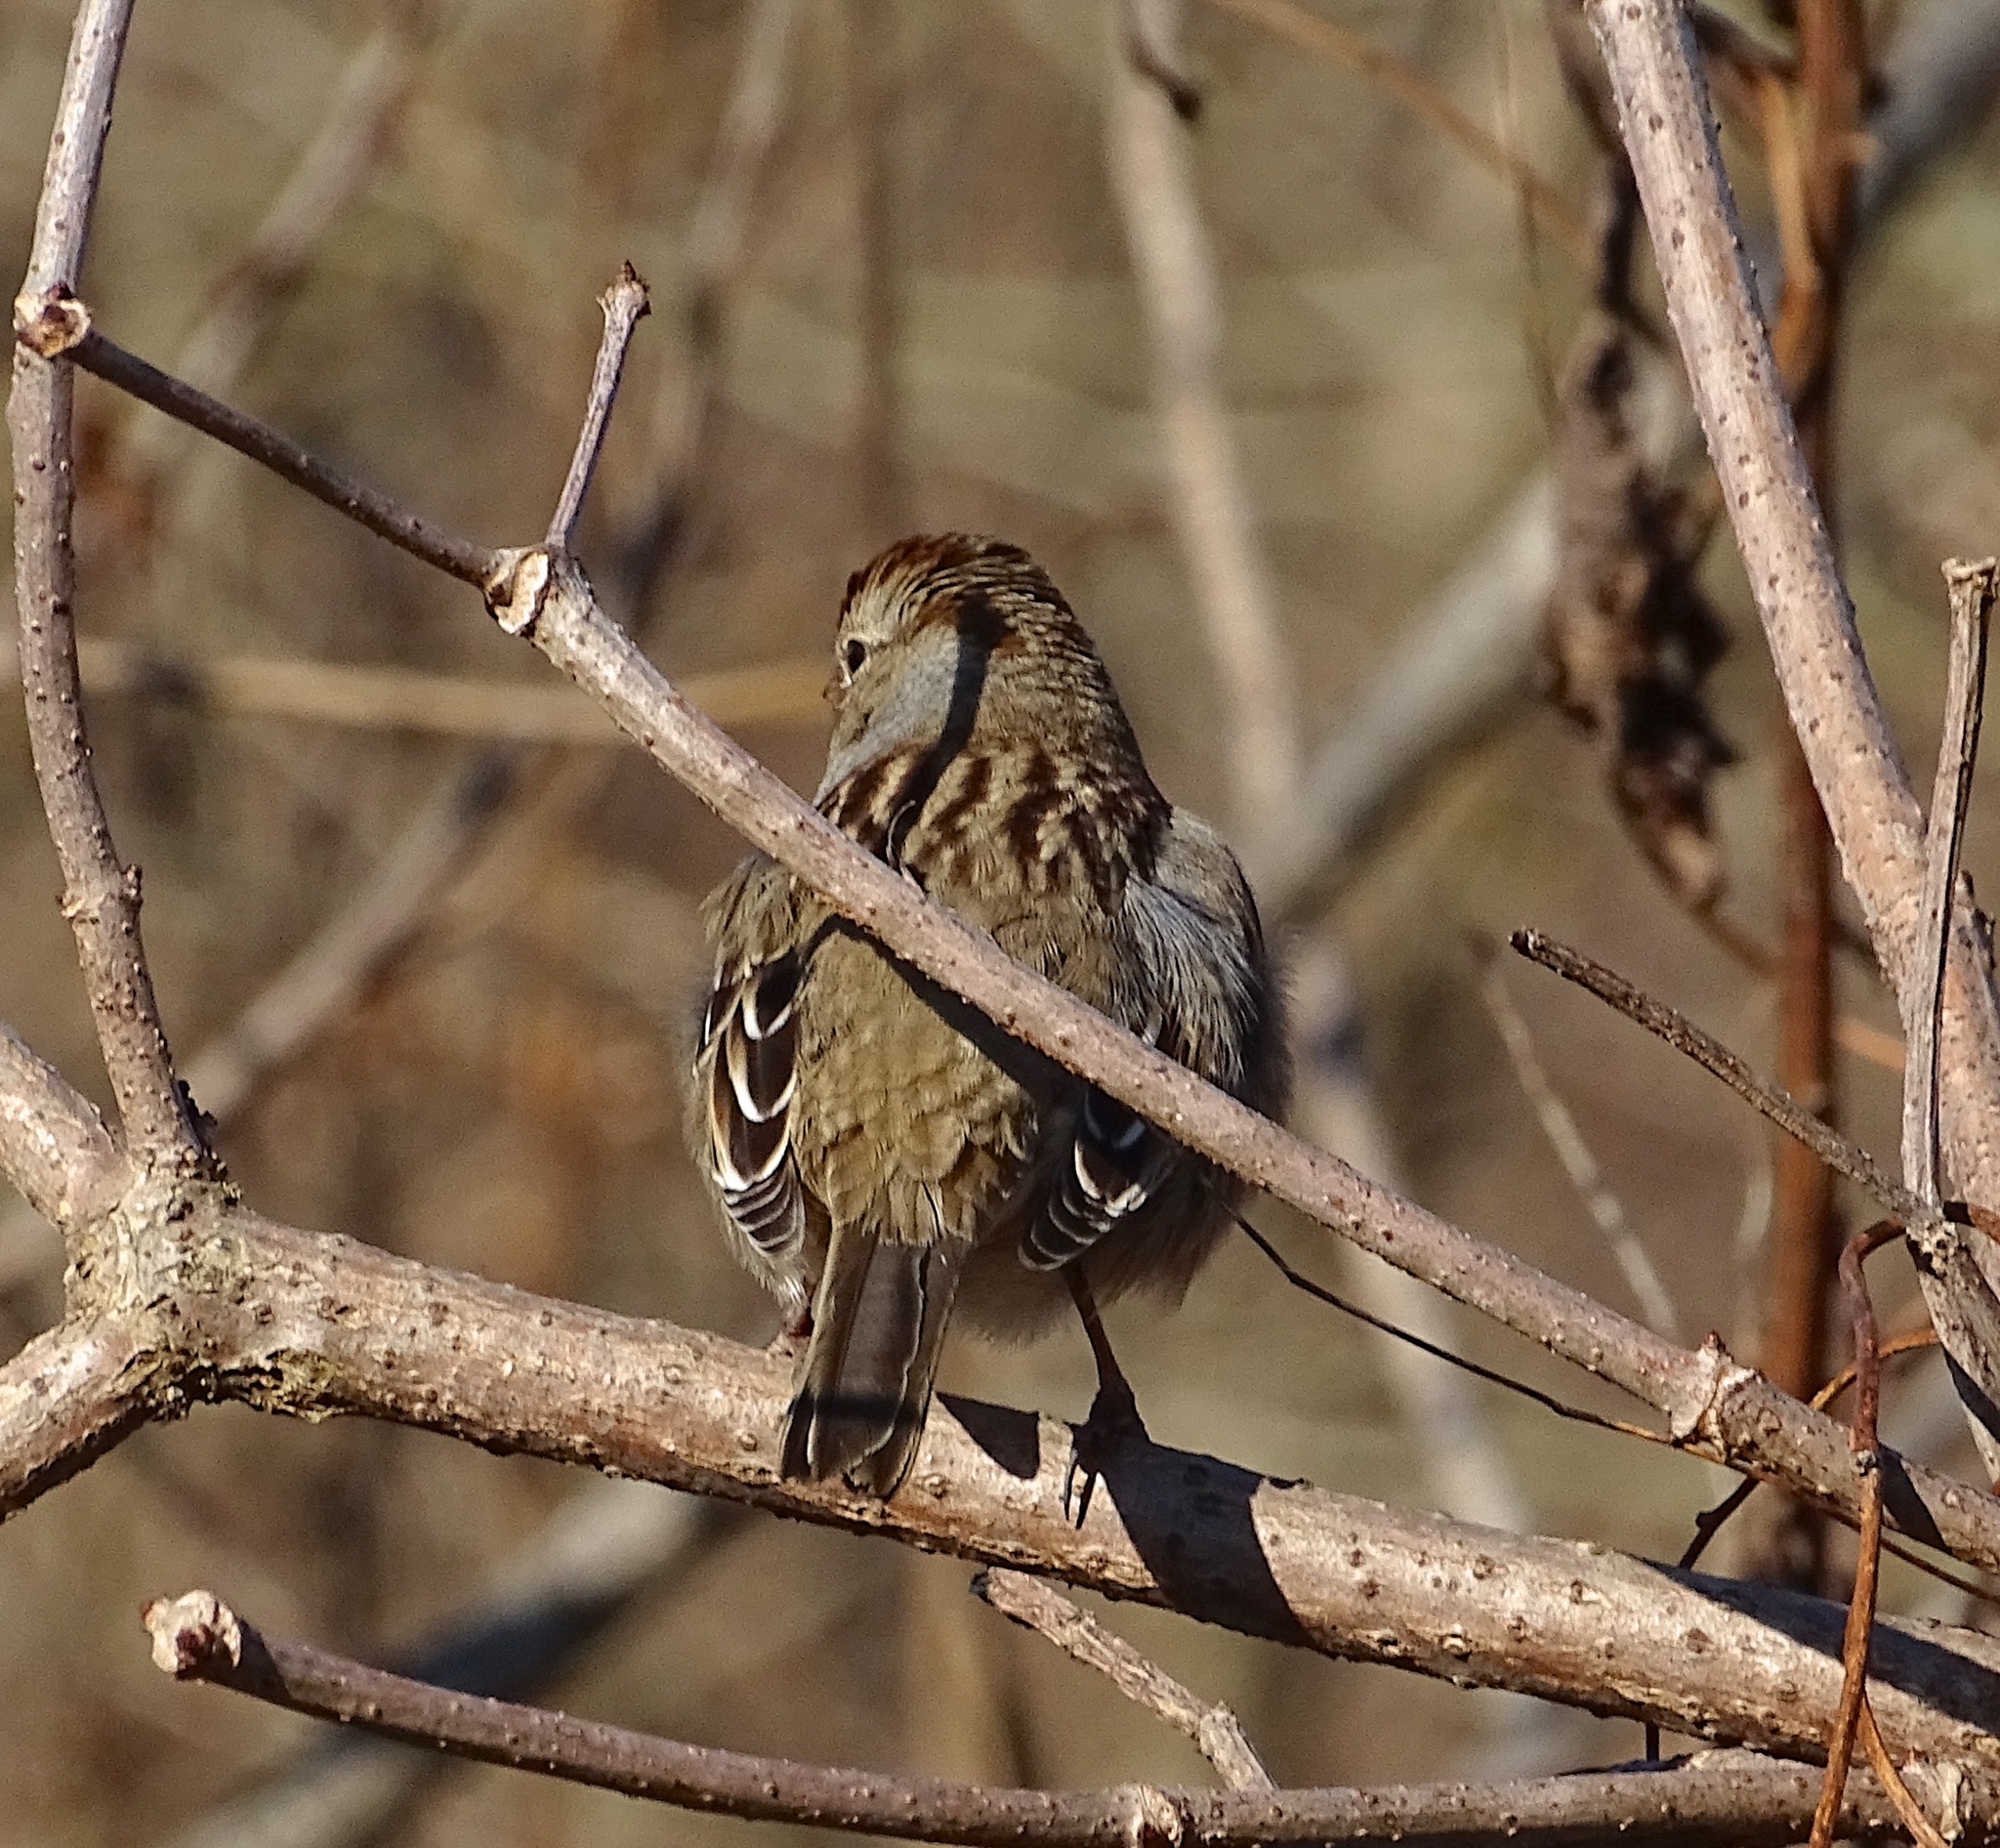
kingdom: Animalia
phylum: Chordata
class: Aves
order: Passeriformes
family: Passerellidae
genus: Zonotrichia
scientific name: Zonotrichia leucophrys
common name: White-crowned sparrow
